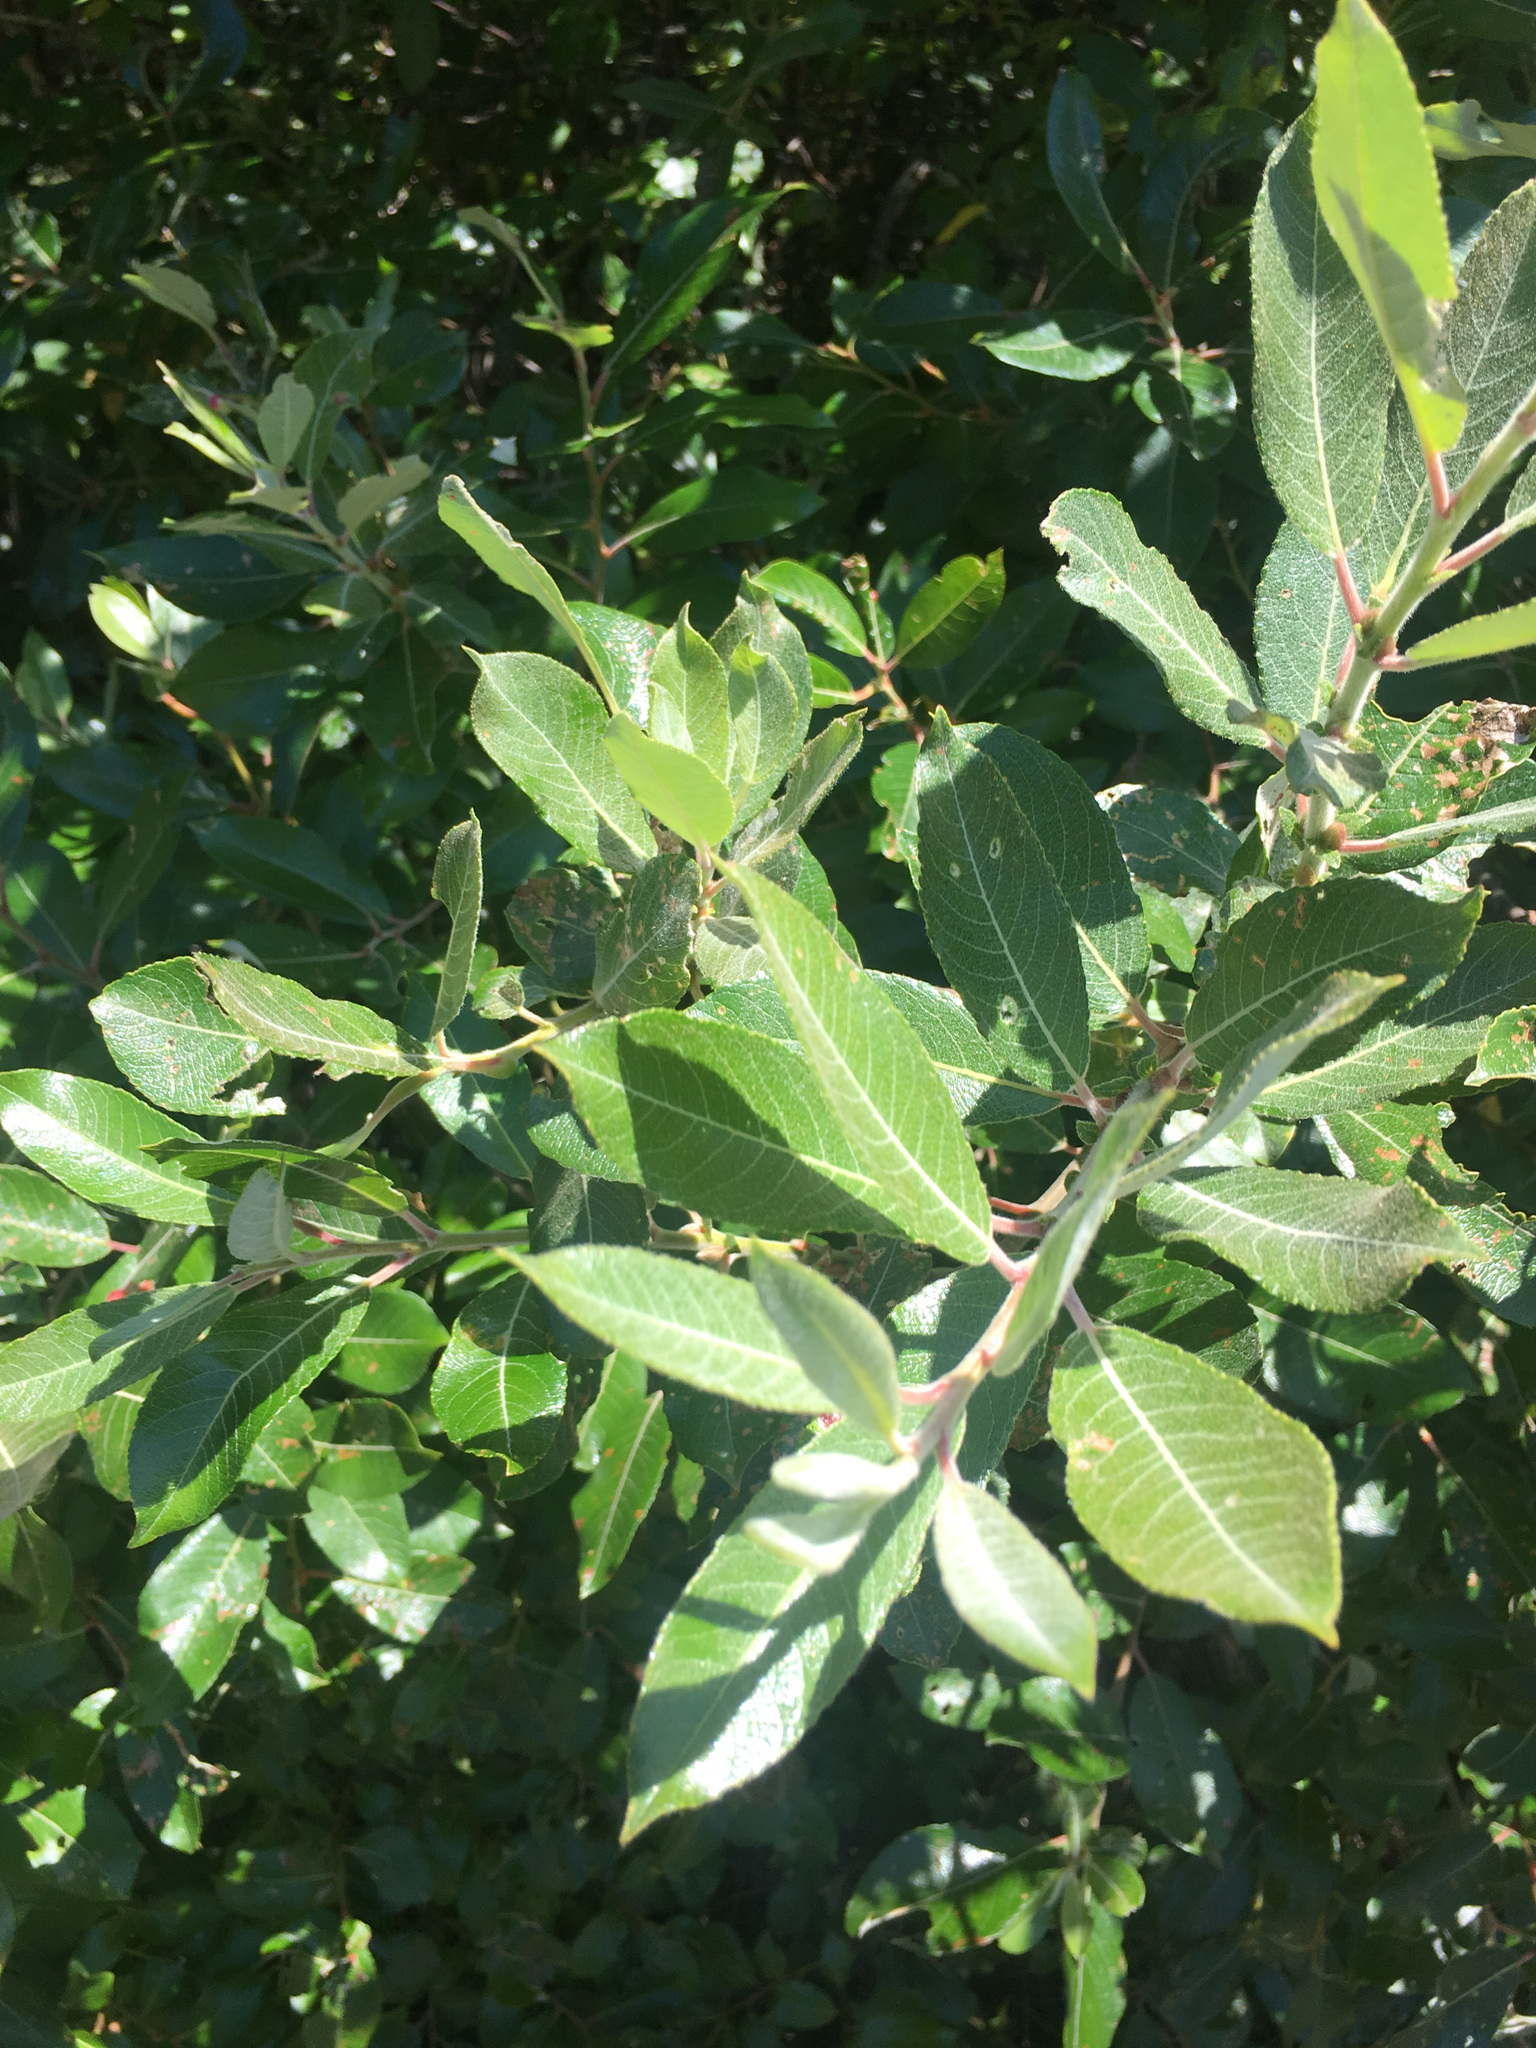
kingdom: Plantae
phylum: Tracheophyta
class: Magnoliopsida
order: Malpighiales
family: Salicaceae
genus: Salix
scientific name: Salix hookeriana
